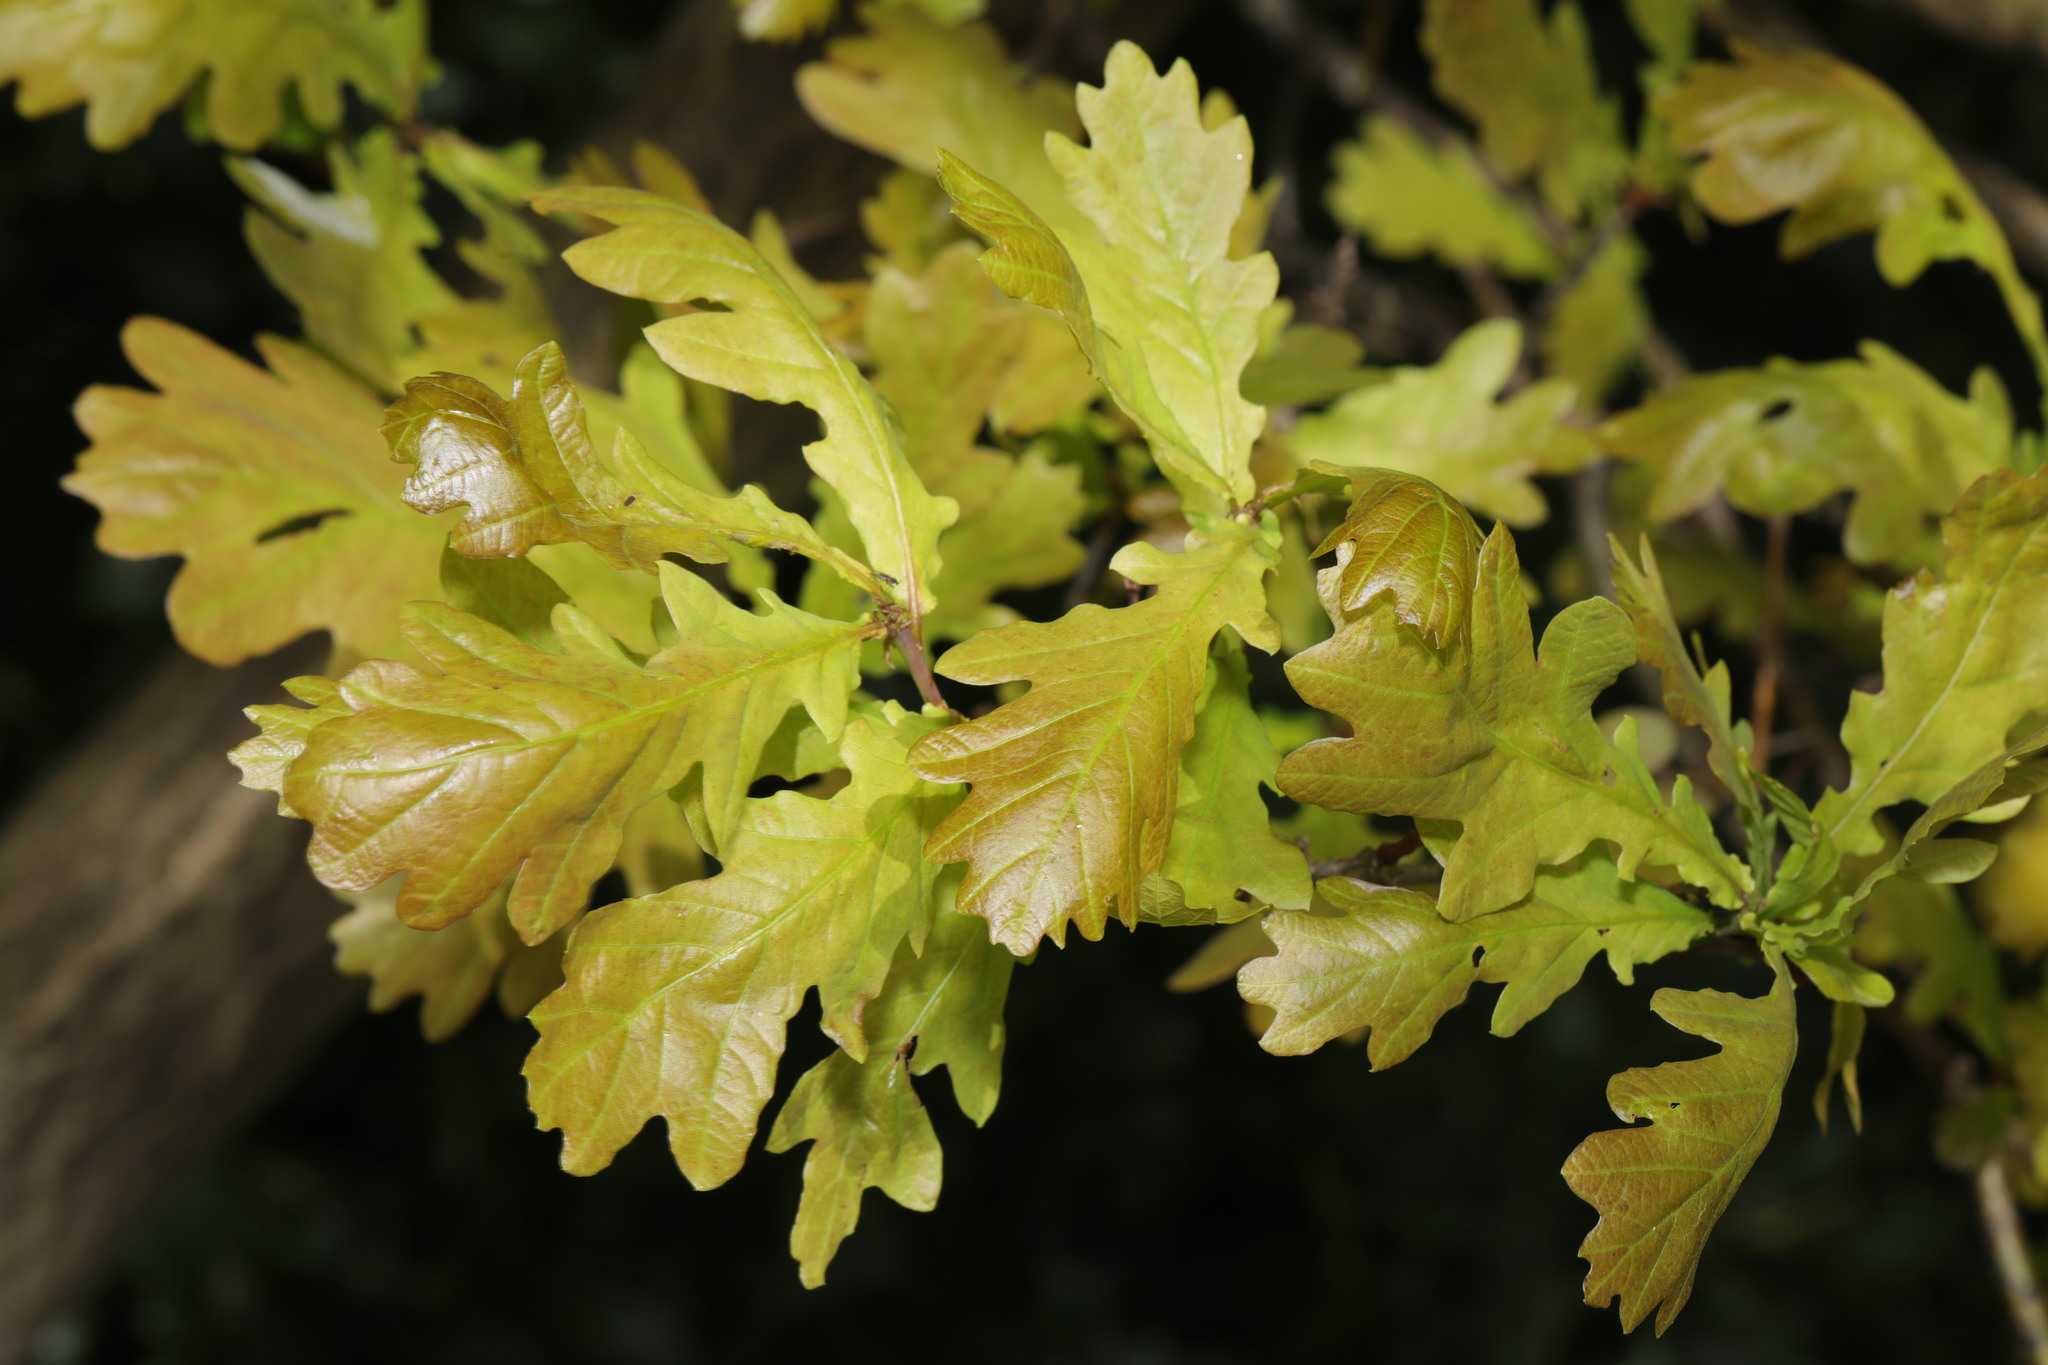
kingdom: Plantae
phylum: Tracheophyta
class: Magnoliopsida
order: Fagales
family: Fagaceae
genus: Quercus
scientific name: Quercus robur
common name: Pedunculate oak
